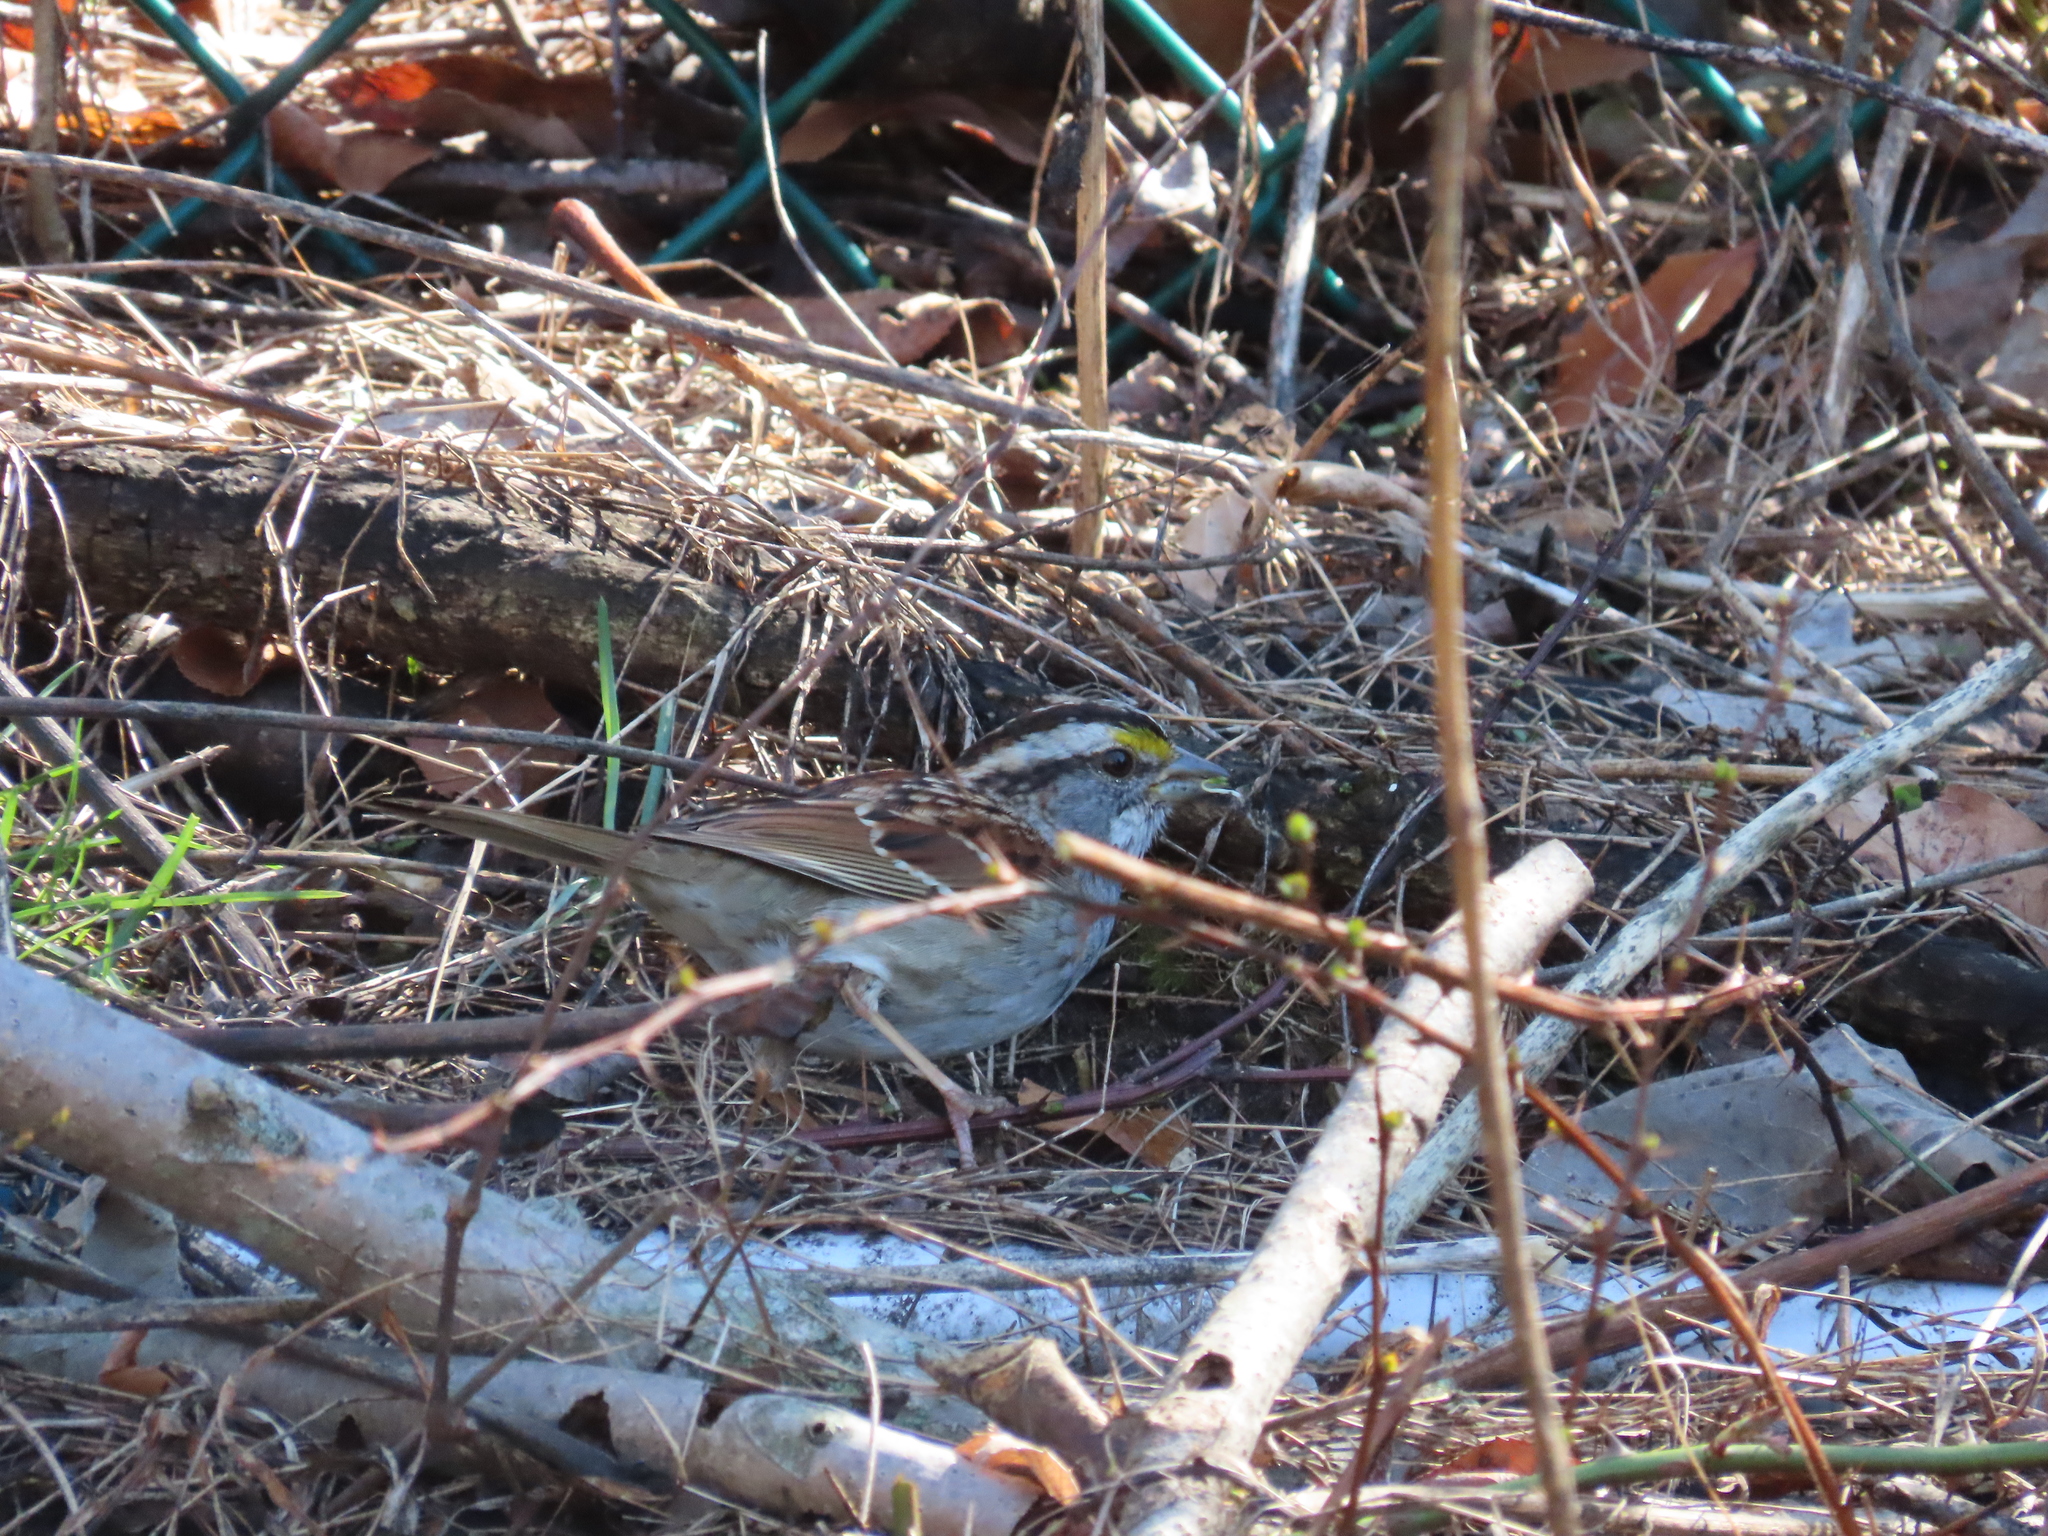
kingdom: Animalia
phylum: Chordata
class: Aves
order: Passeriformes
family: Passerellidae
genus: Zonotrichia
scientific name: Zonotrichia albicollis
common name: White-throated sparrow
